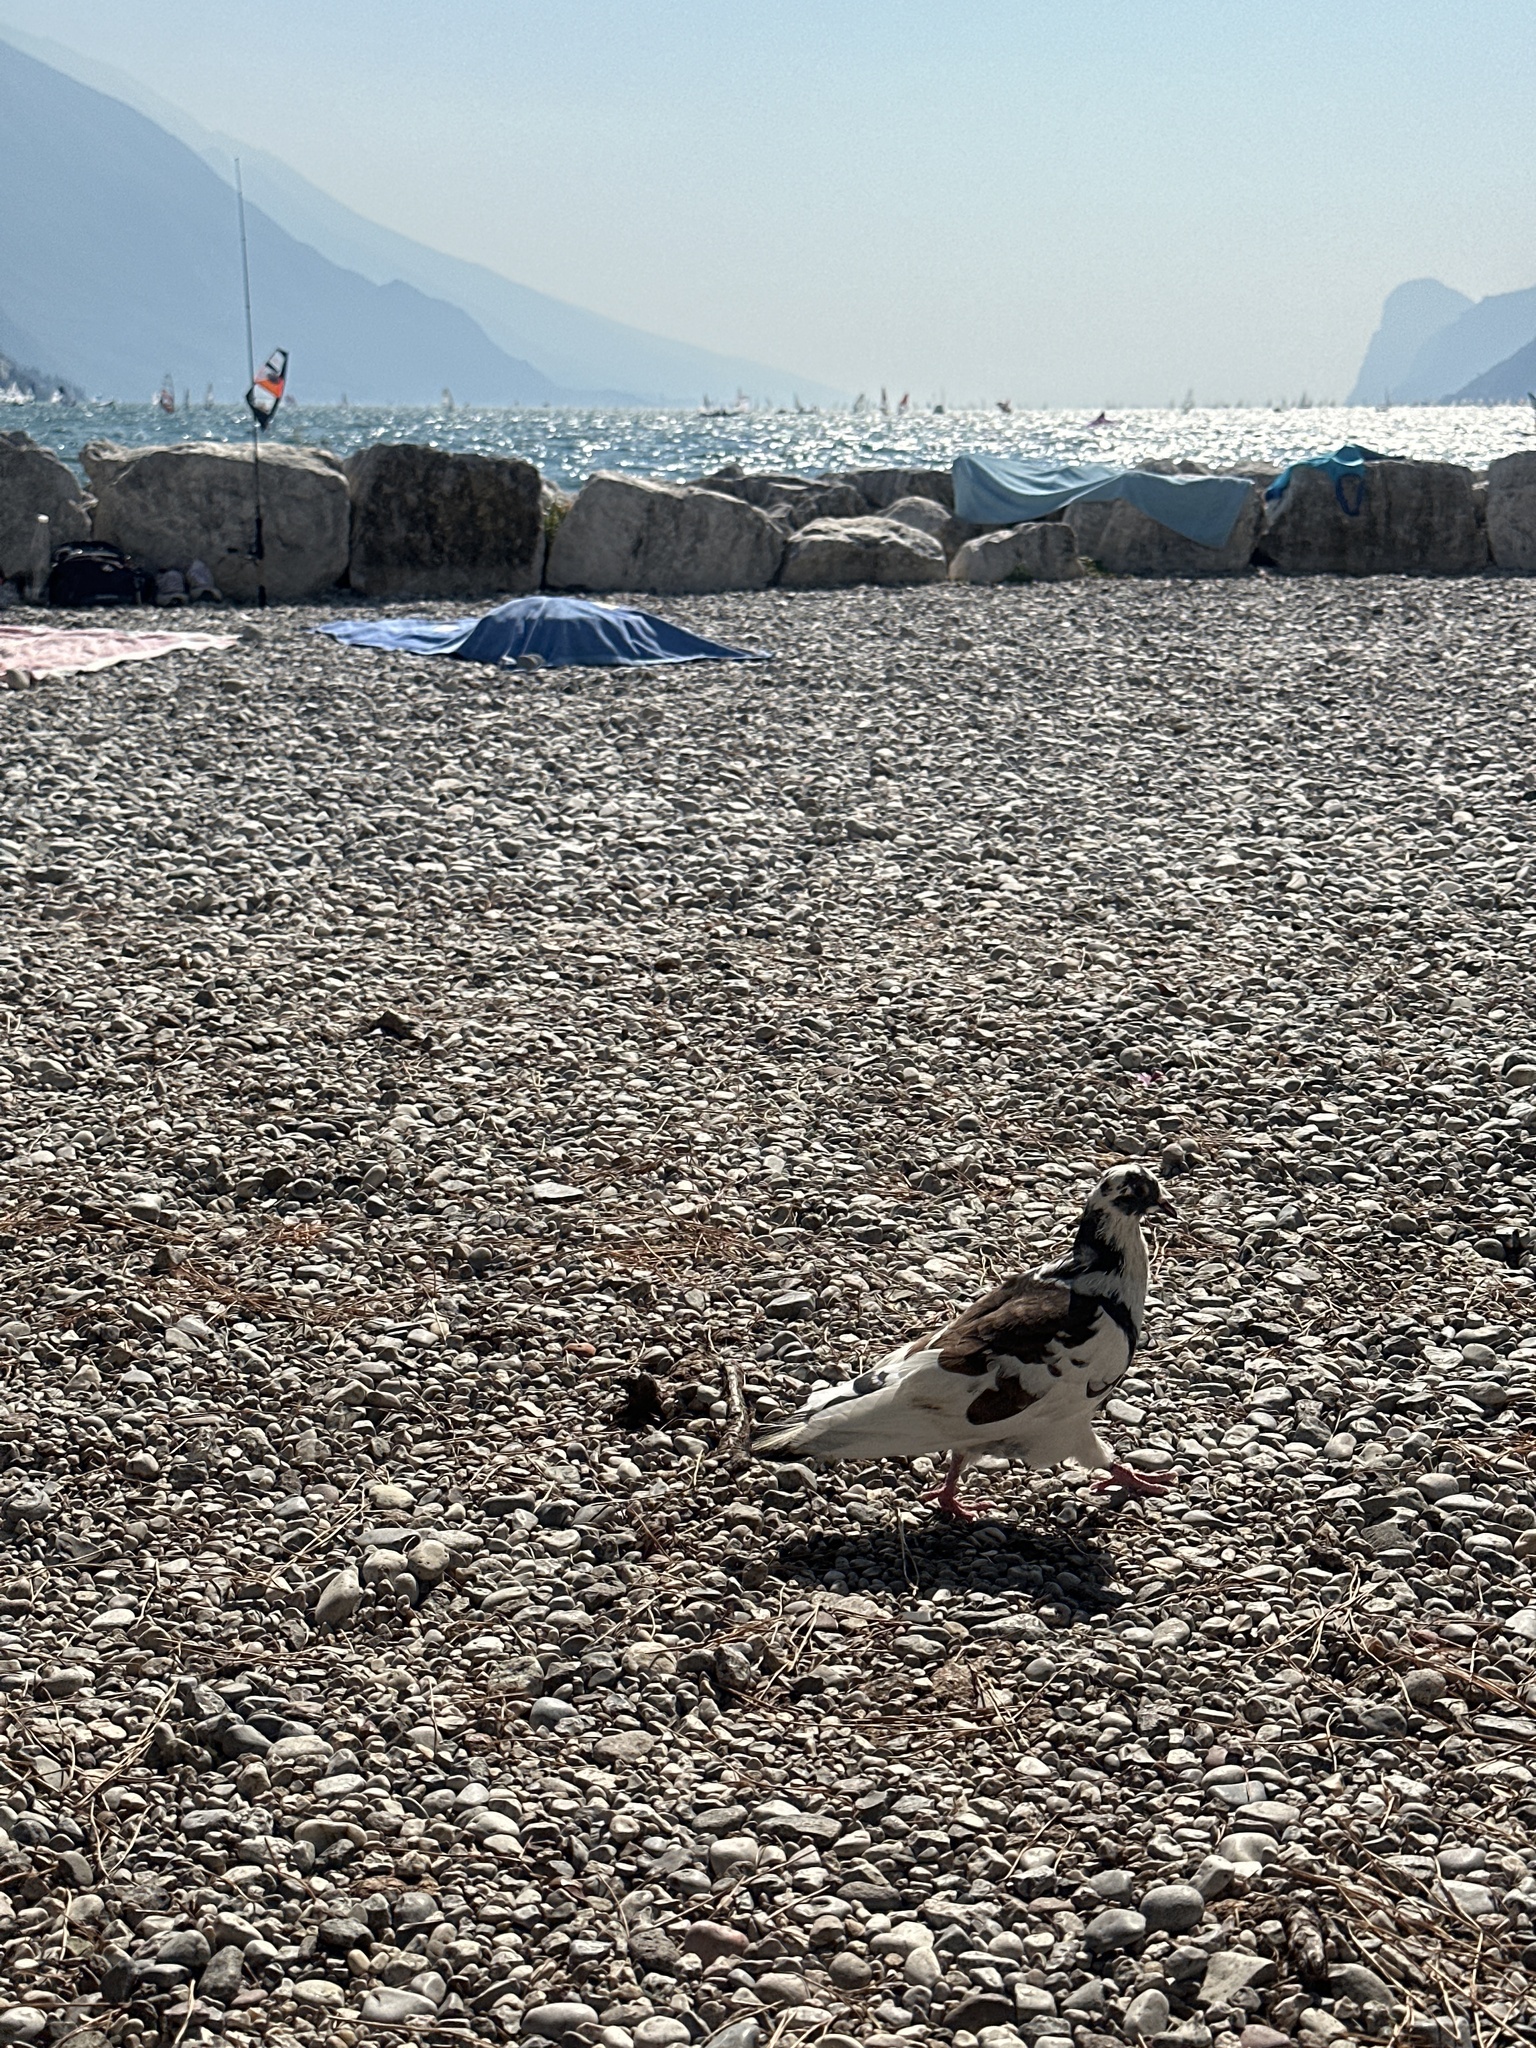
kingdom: Animalia
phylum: Chordata
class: Aves
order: Columbiformes
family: Columbidae
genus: Columba
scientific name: Columba livia
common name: Rock pigeon
